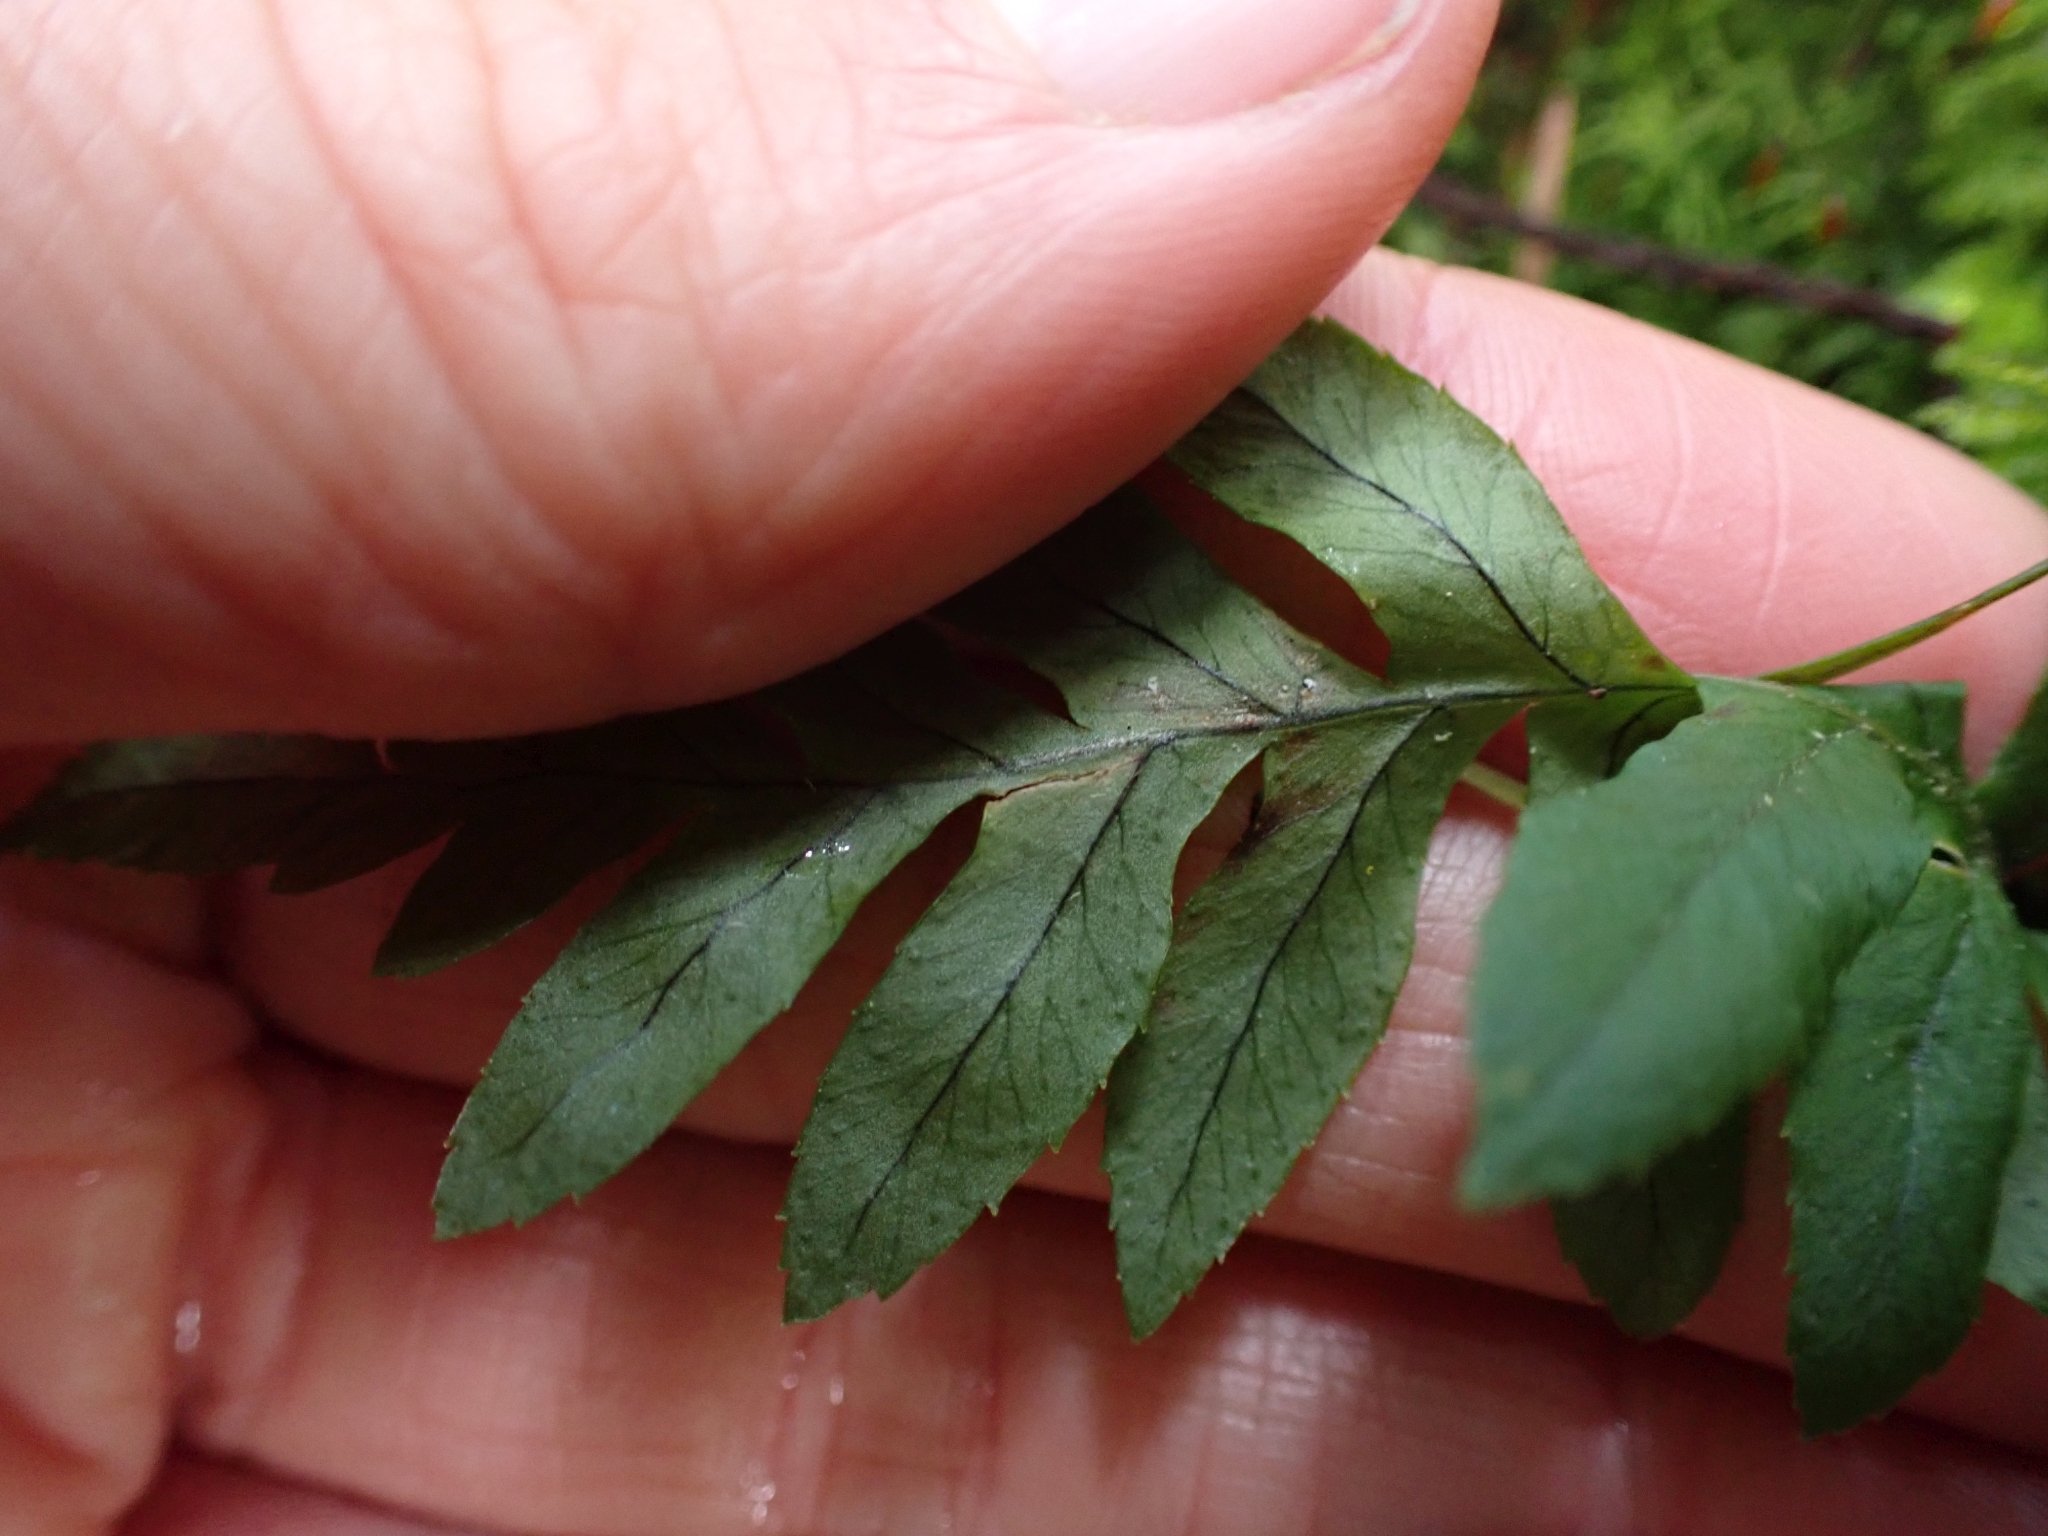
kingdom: Plantae
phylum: Tracheophyta
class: Polypodiopsida
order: Polypodiales
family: Polypodiaceae
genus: Polypodium
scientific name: Polypodium glycyrrhiza
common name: Licorice fern
